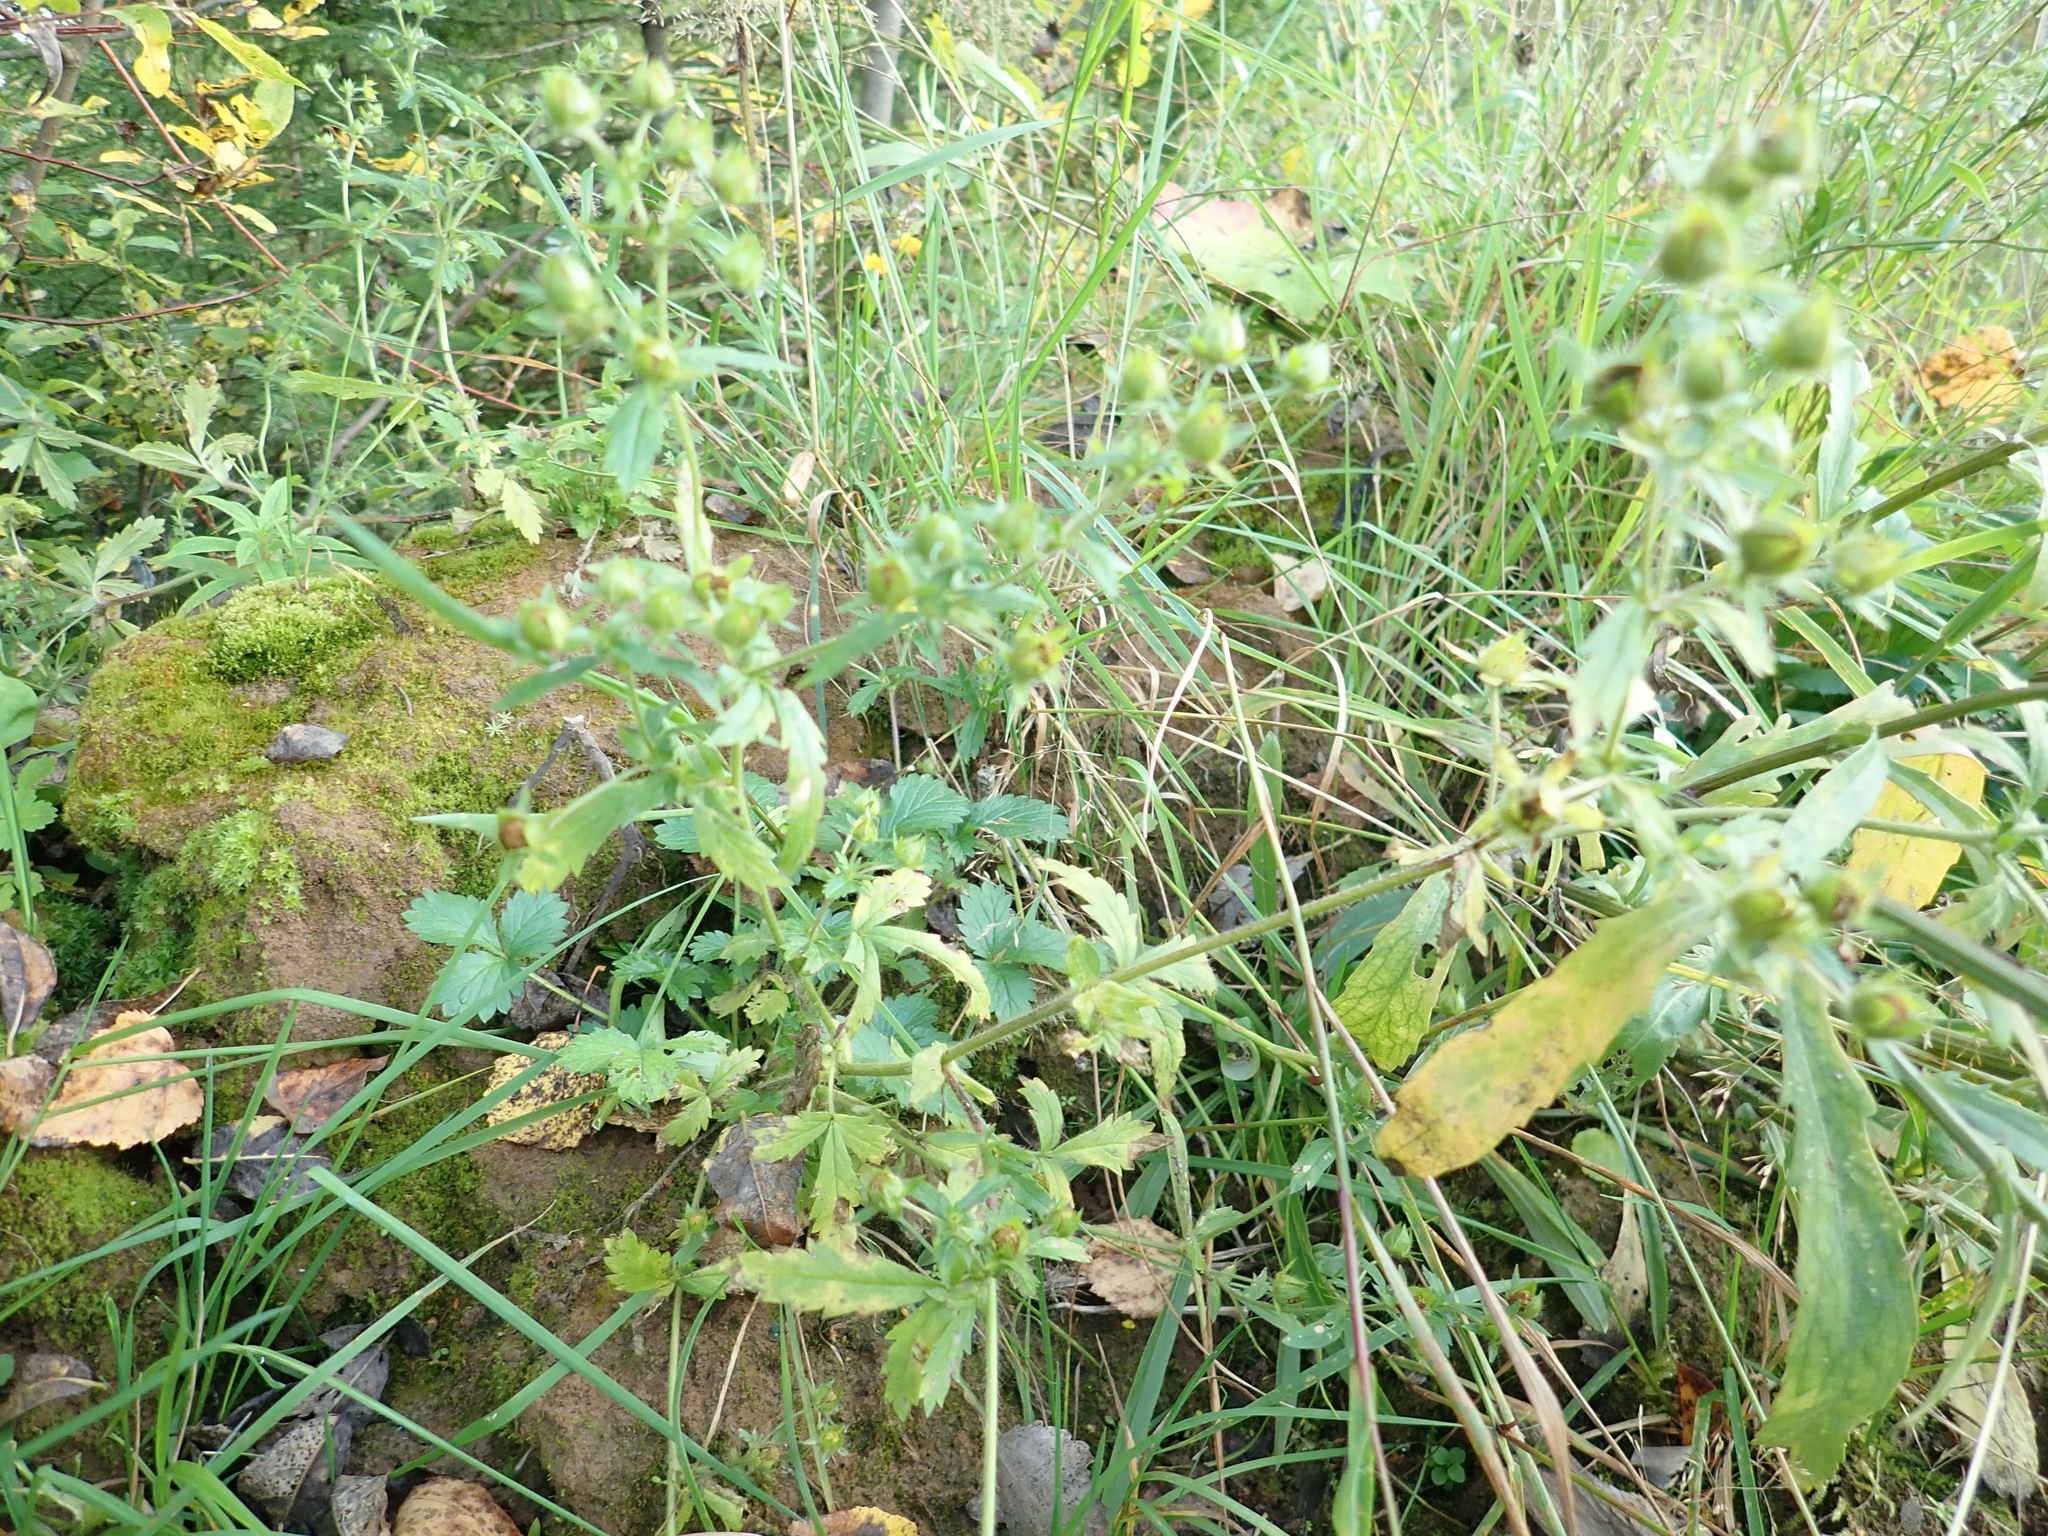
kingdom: Plantae
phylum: Tracheophyta
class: Magnoliopsida
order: Rosales
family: Rosaceae
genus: Potentilla
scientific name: Potentilla norvegica
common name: Ternate-leaved cinquefoil
